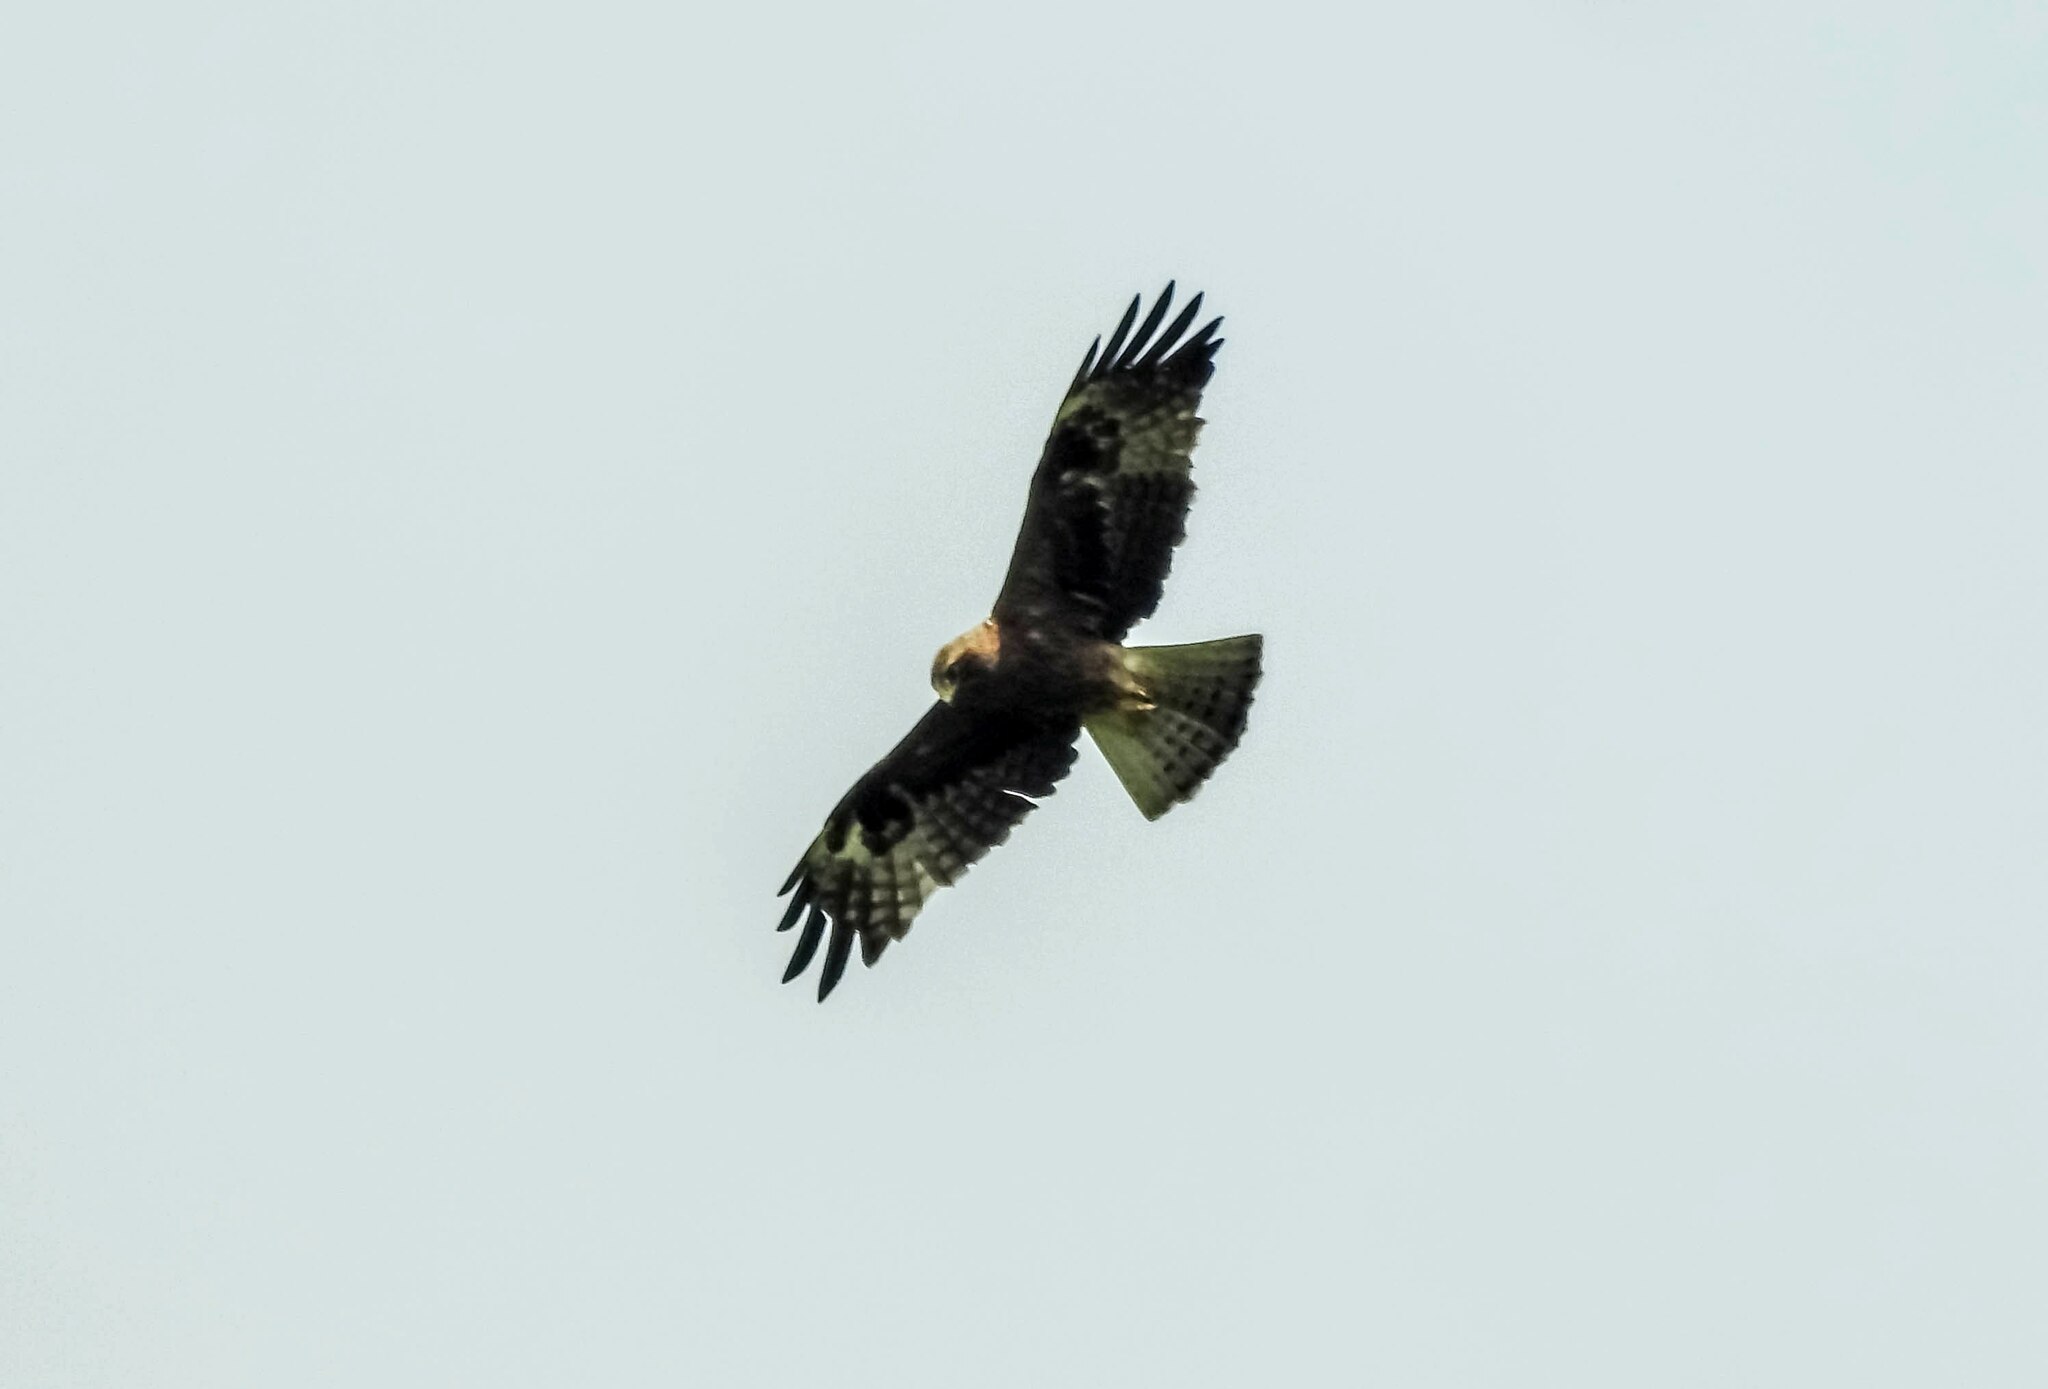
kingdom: Animalia
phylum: Chordata
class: Aves
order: Accipitriformes
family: Accipitridae
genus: Hieraaetus
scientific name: Hieraaetus pennatus
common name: Booted eagle
